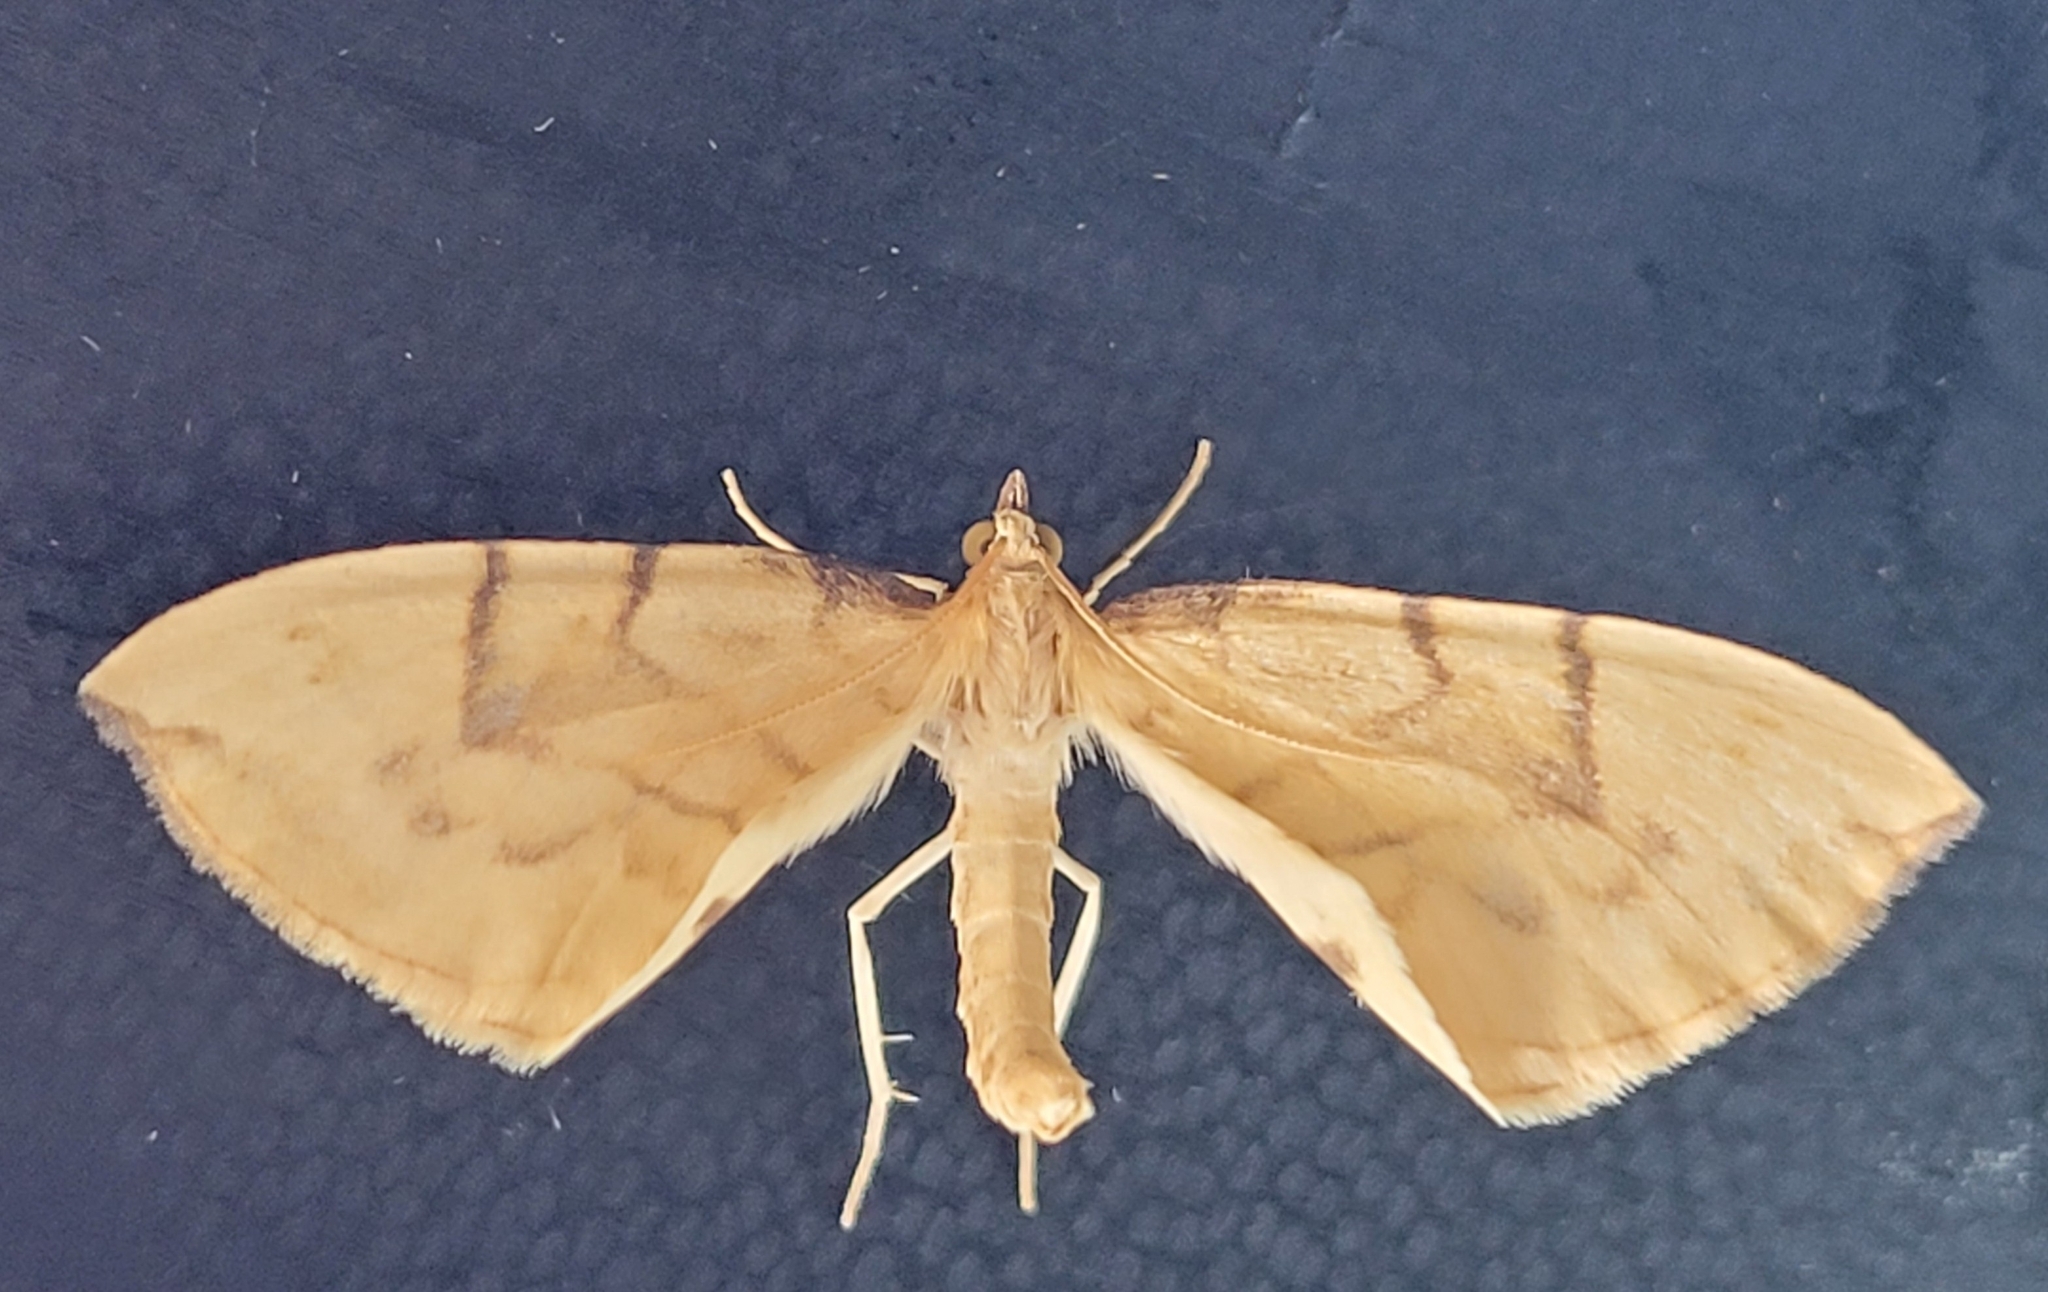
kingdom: Animalia
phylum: Arthropoda
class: Insecta
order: Lepidoptera
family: Geometridae
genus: Eulithis
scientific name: Eulithis pyraliata
